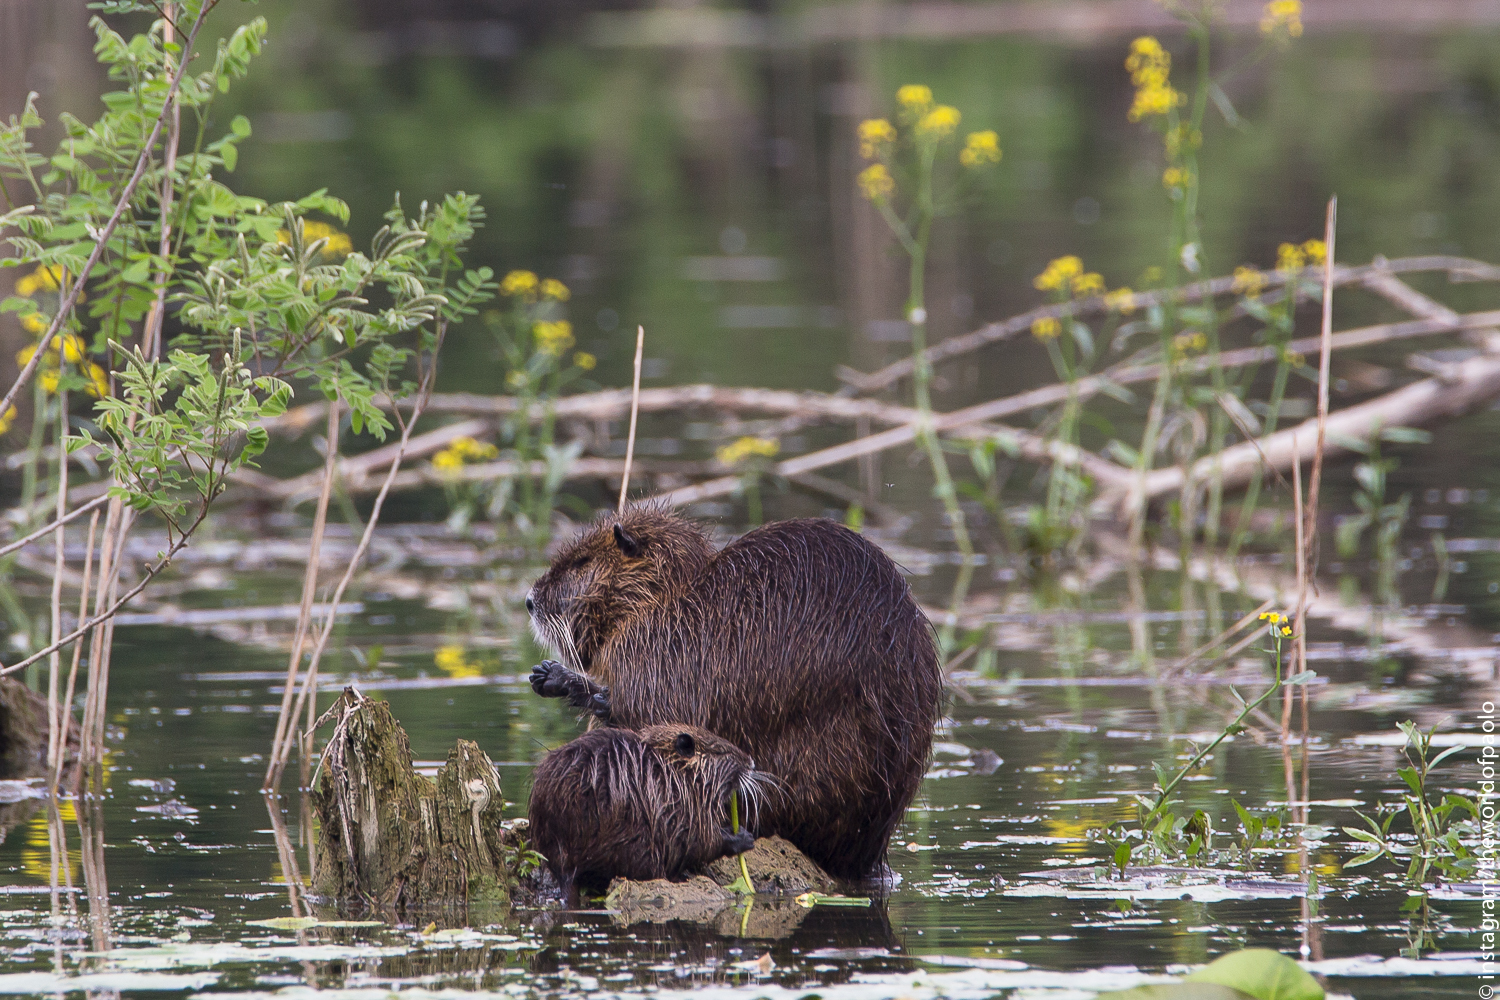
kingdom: Animalia
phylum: Chordata
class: Mammalia
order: Rodentia
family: Myocastoridae
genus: Myocastor
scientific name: Myocastor coypus
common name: Coypu
